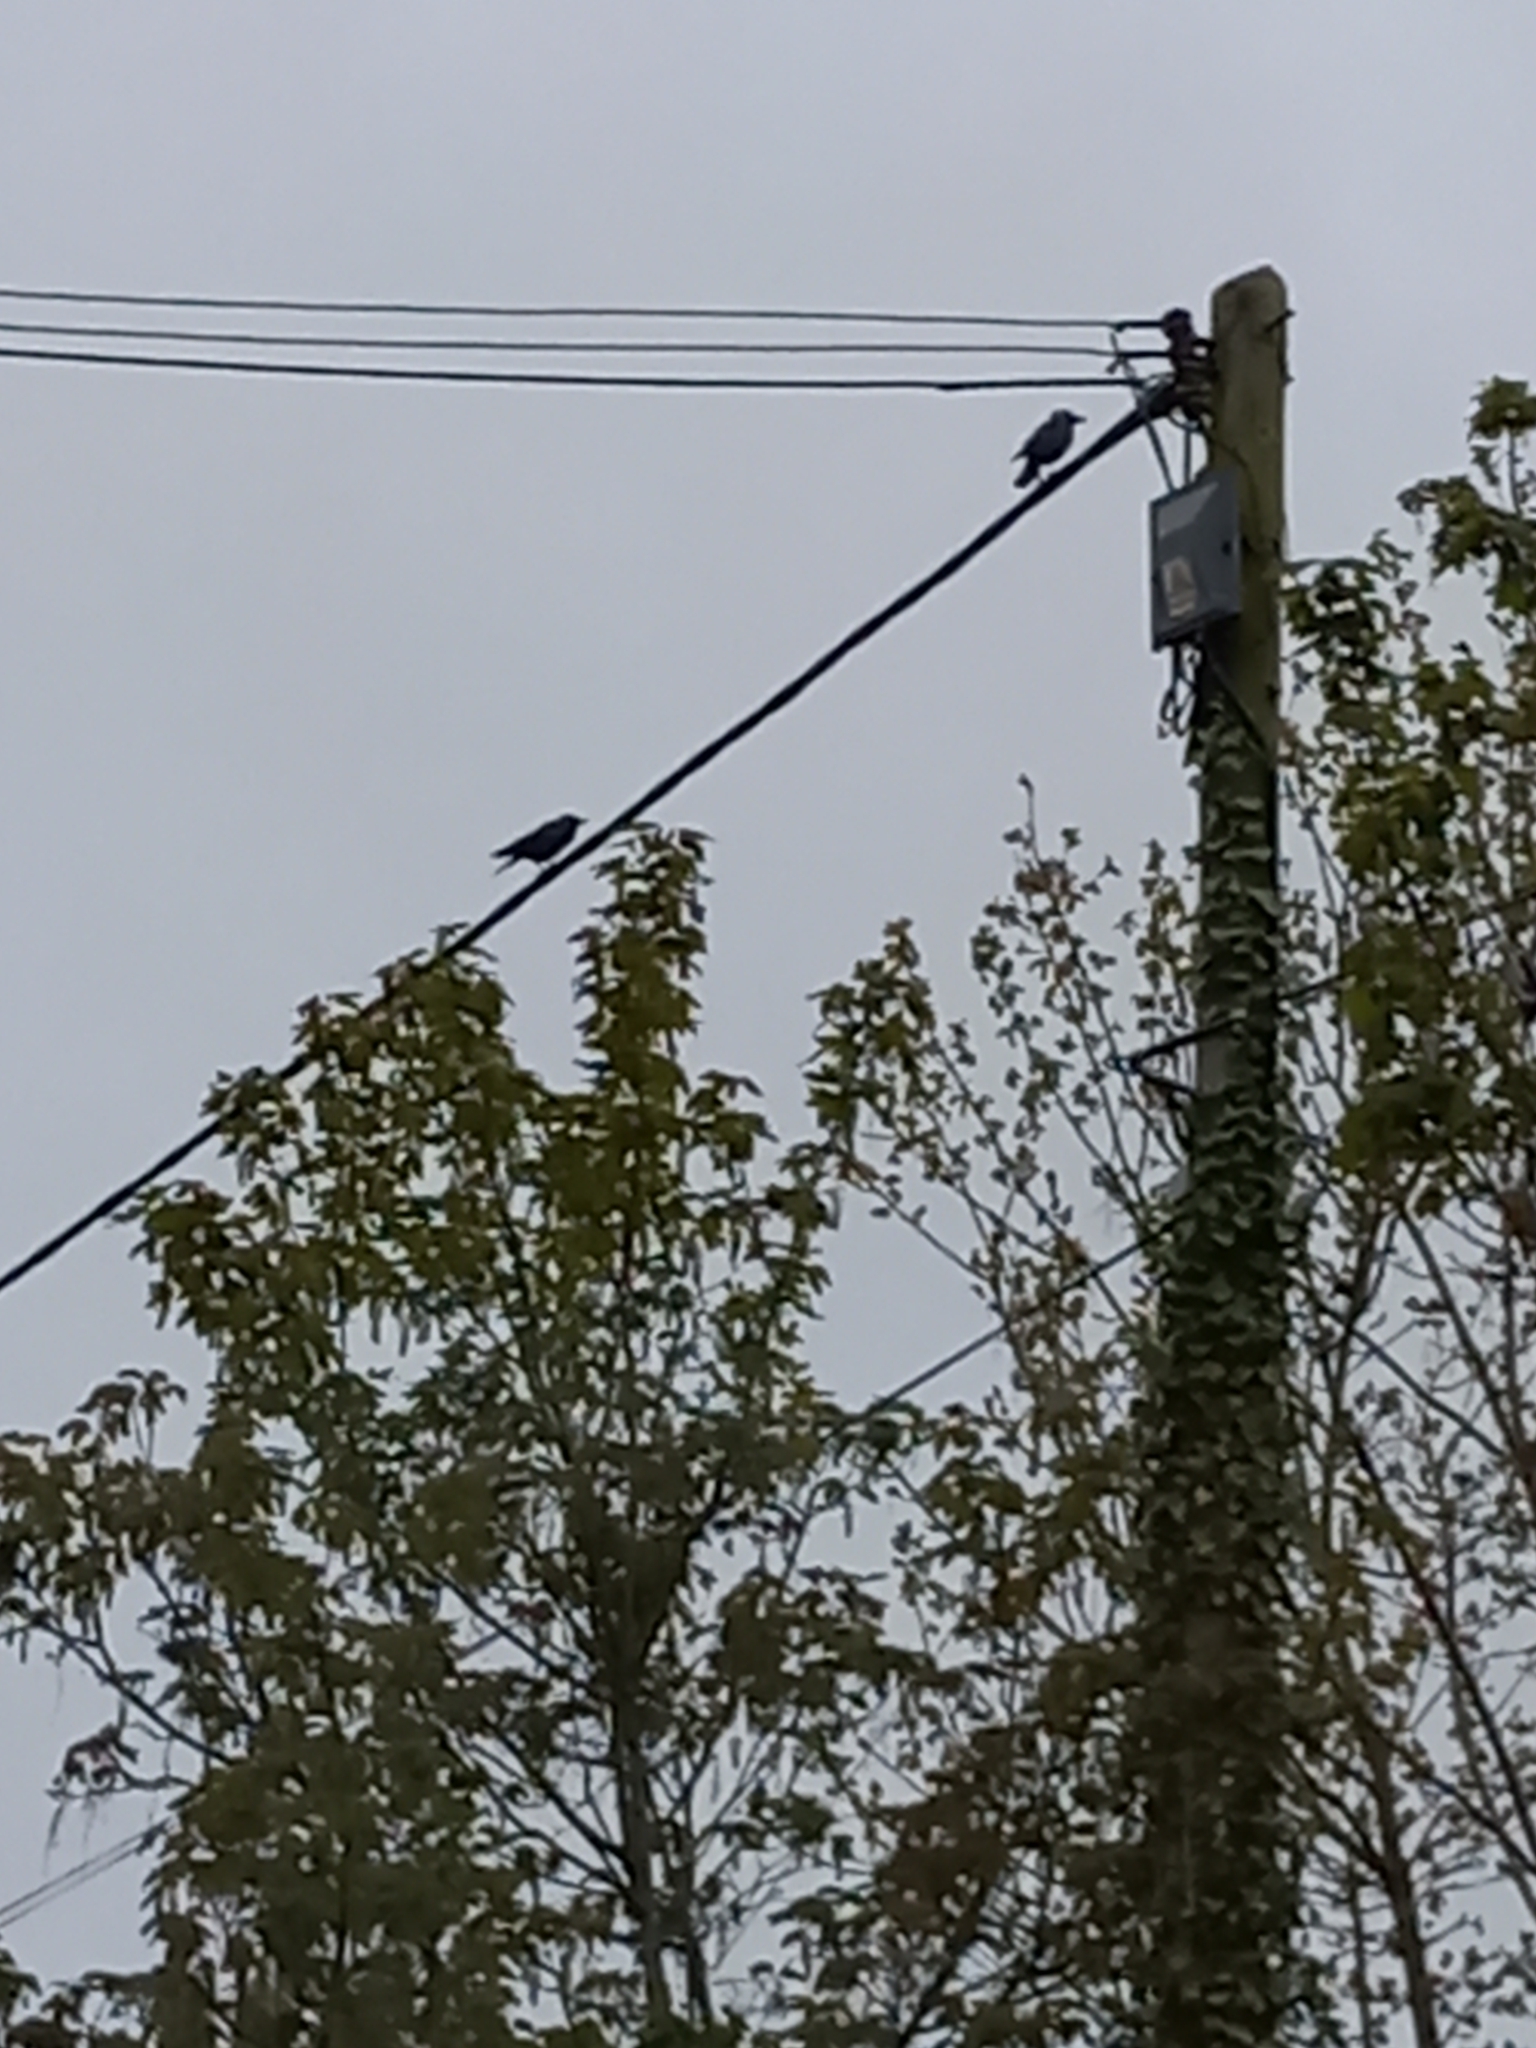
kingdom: Animalia
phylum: Chordata
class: Aves
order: Passeriformes
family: Corvidae
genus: Coloeus
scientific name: Coloeus monedula
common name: Western jackdaw
